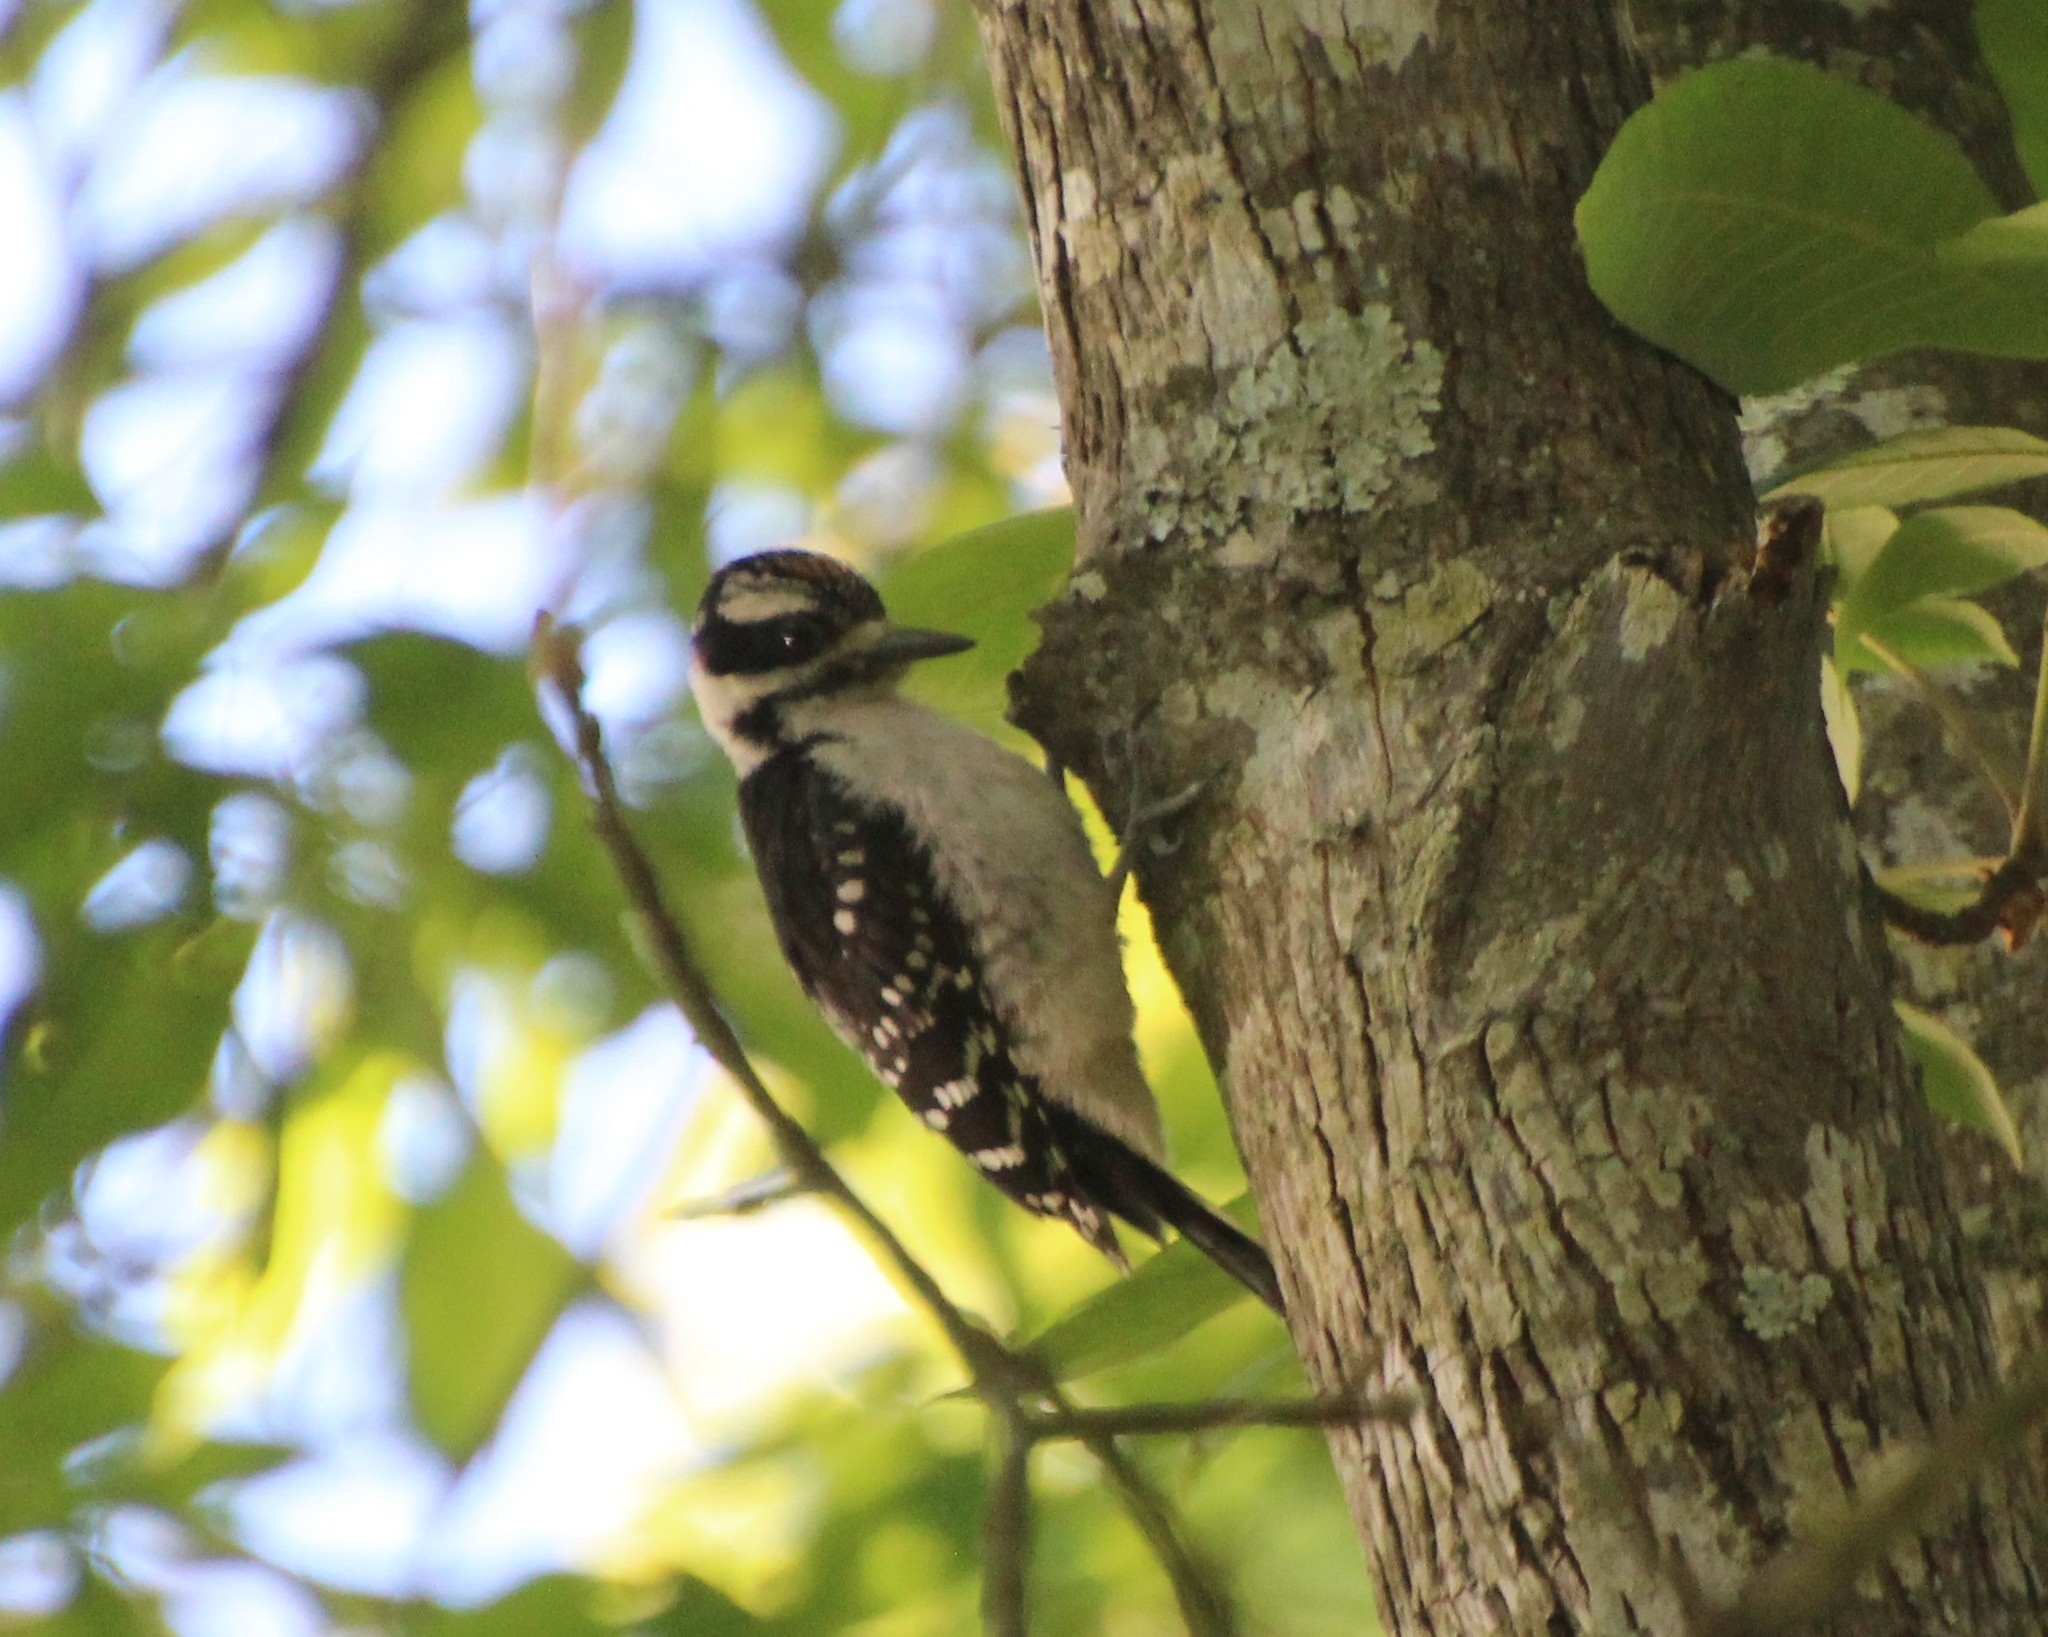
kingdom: Animalia
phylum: Chordata
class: Aves
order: Piciformes
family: Picidae
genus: Leuconotopicus
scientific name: Leuconotopicus villosus
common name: Hairy woodpecker
